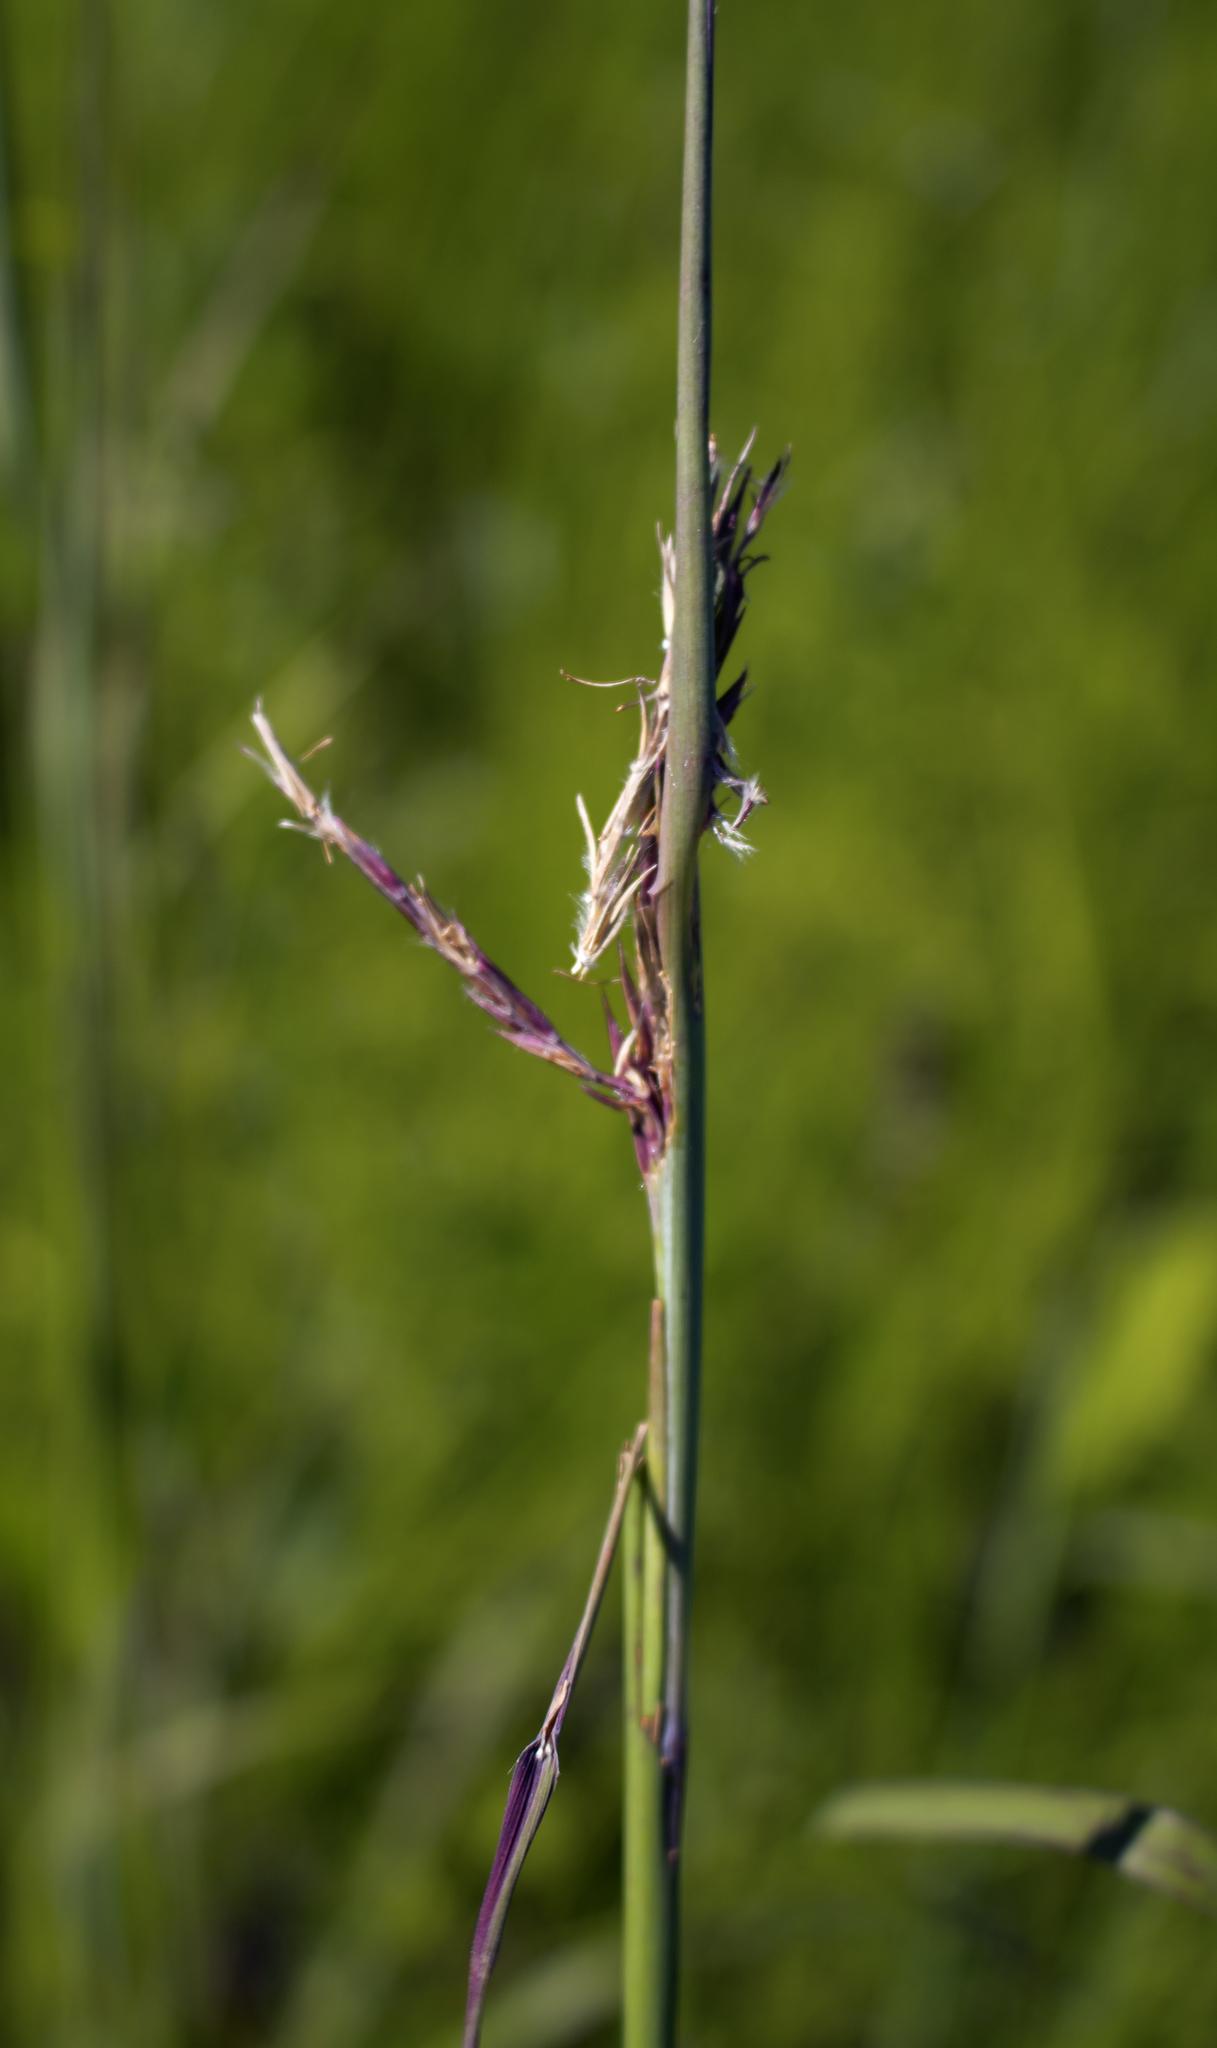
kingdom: Plantae
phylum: Tracheophyta
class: Liliopsida
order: Poales
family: Poaceae
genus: Andropogon
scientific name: Andropogon gerardi
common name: Big bluestem
